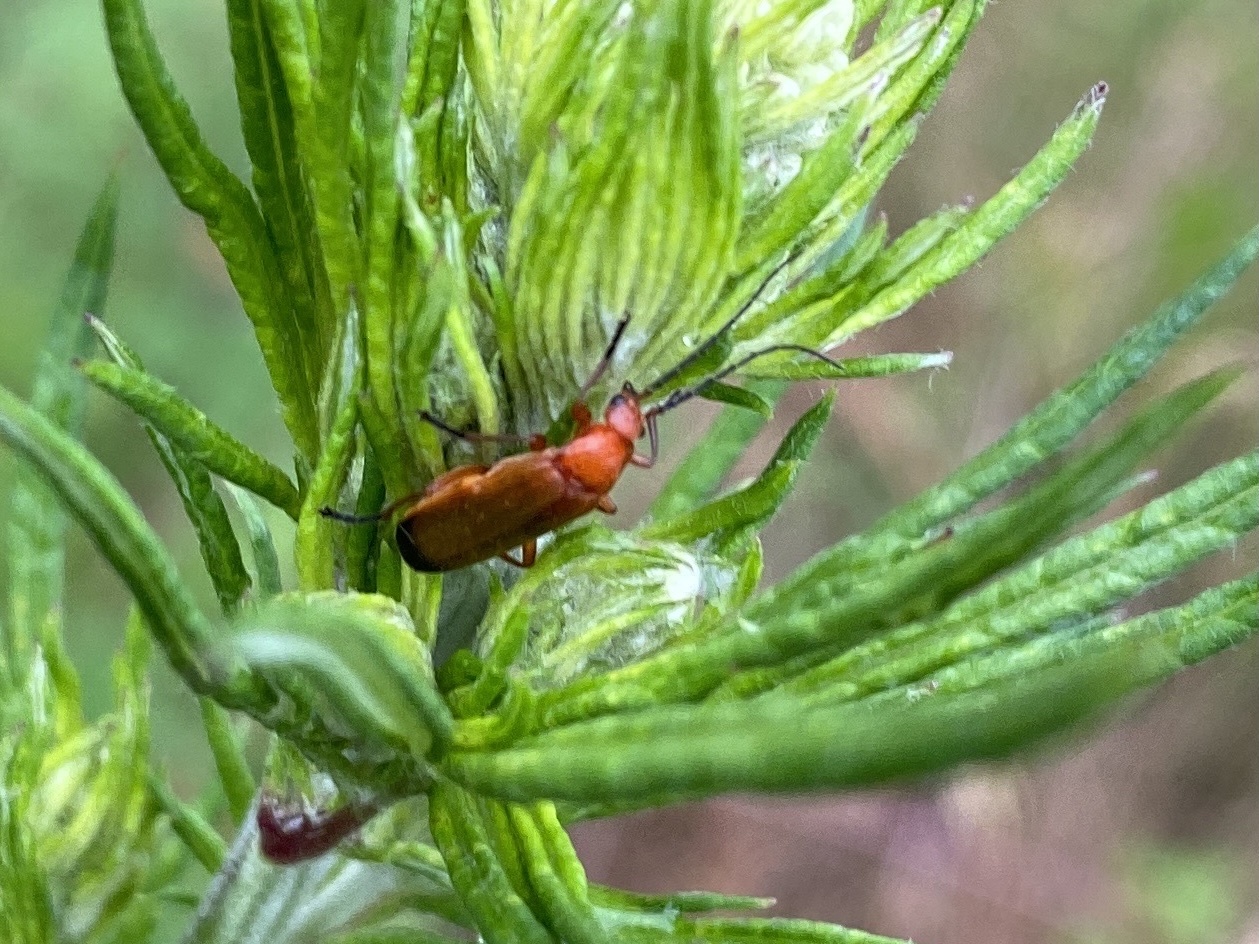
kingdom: Animalia
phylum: Arthropoda
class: Insecta
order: Coleoptera
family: Cantharidae
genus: Rhagonycha
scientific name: Rhagonycha fulva
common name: Common red soldier beetle
